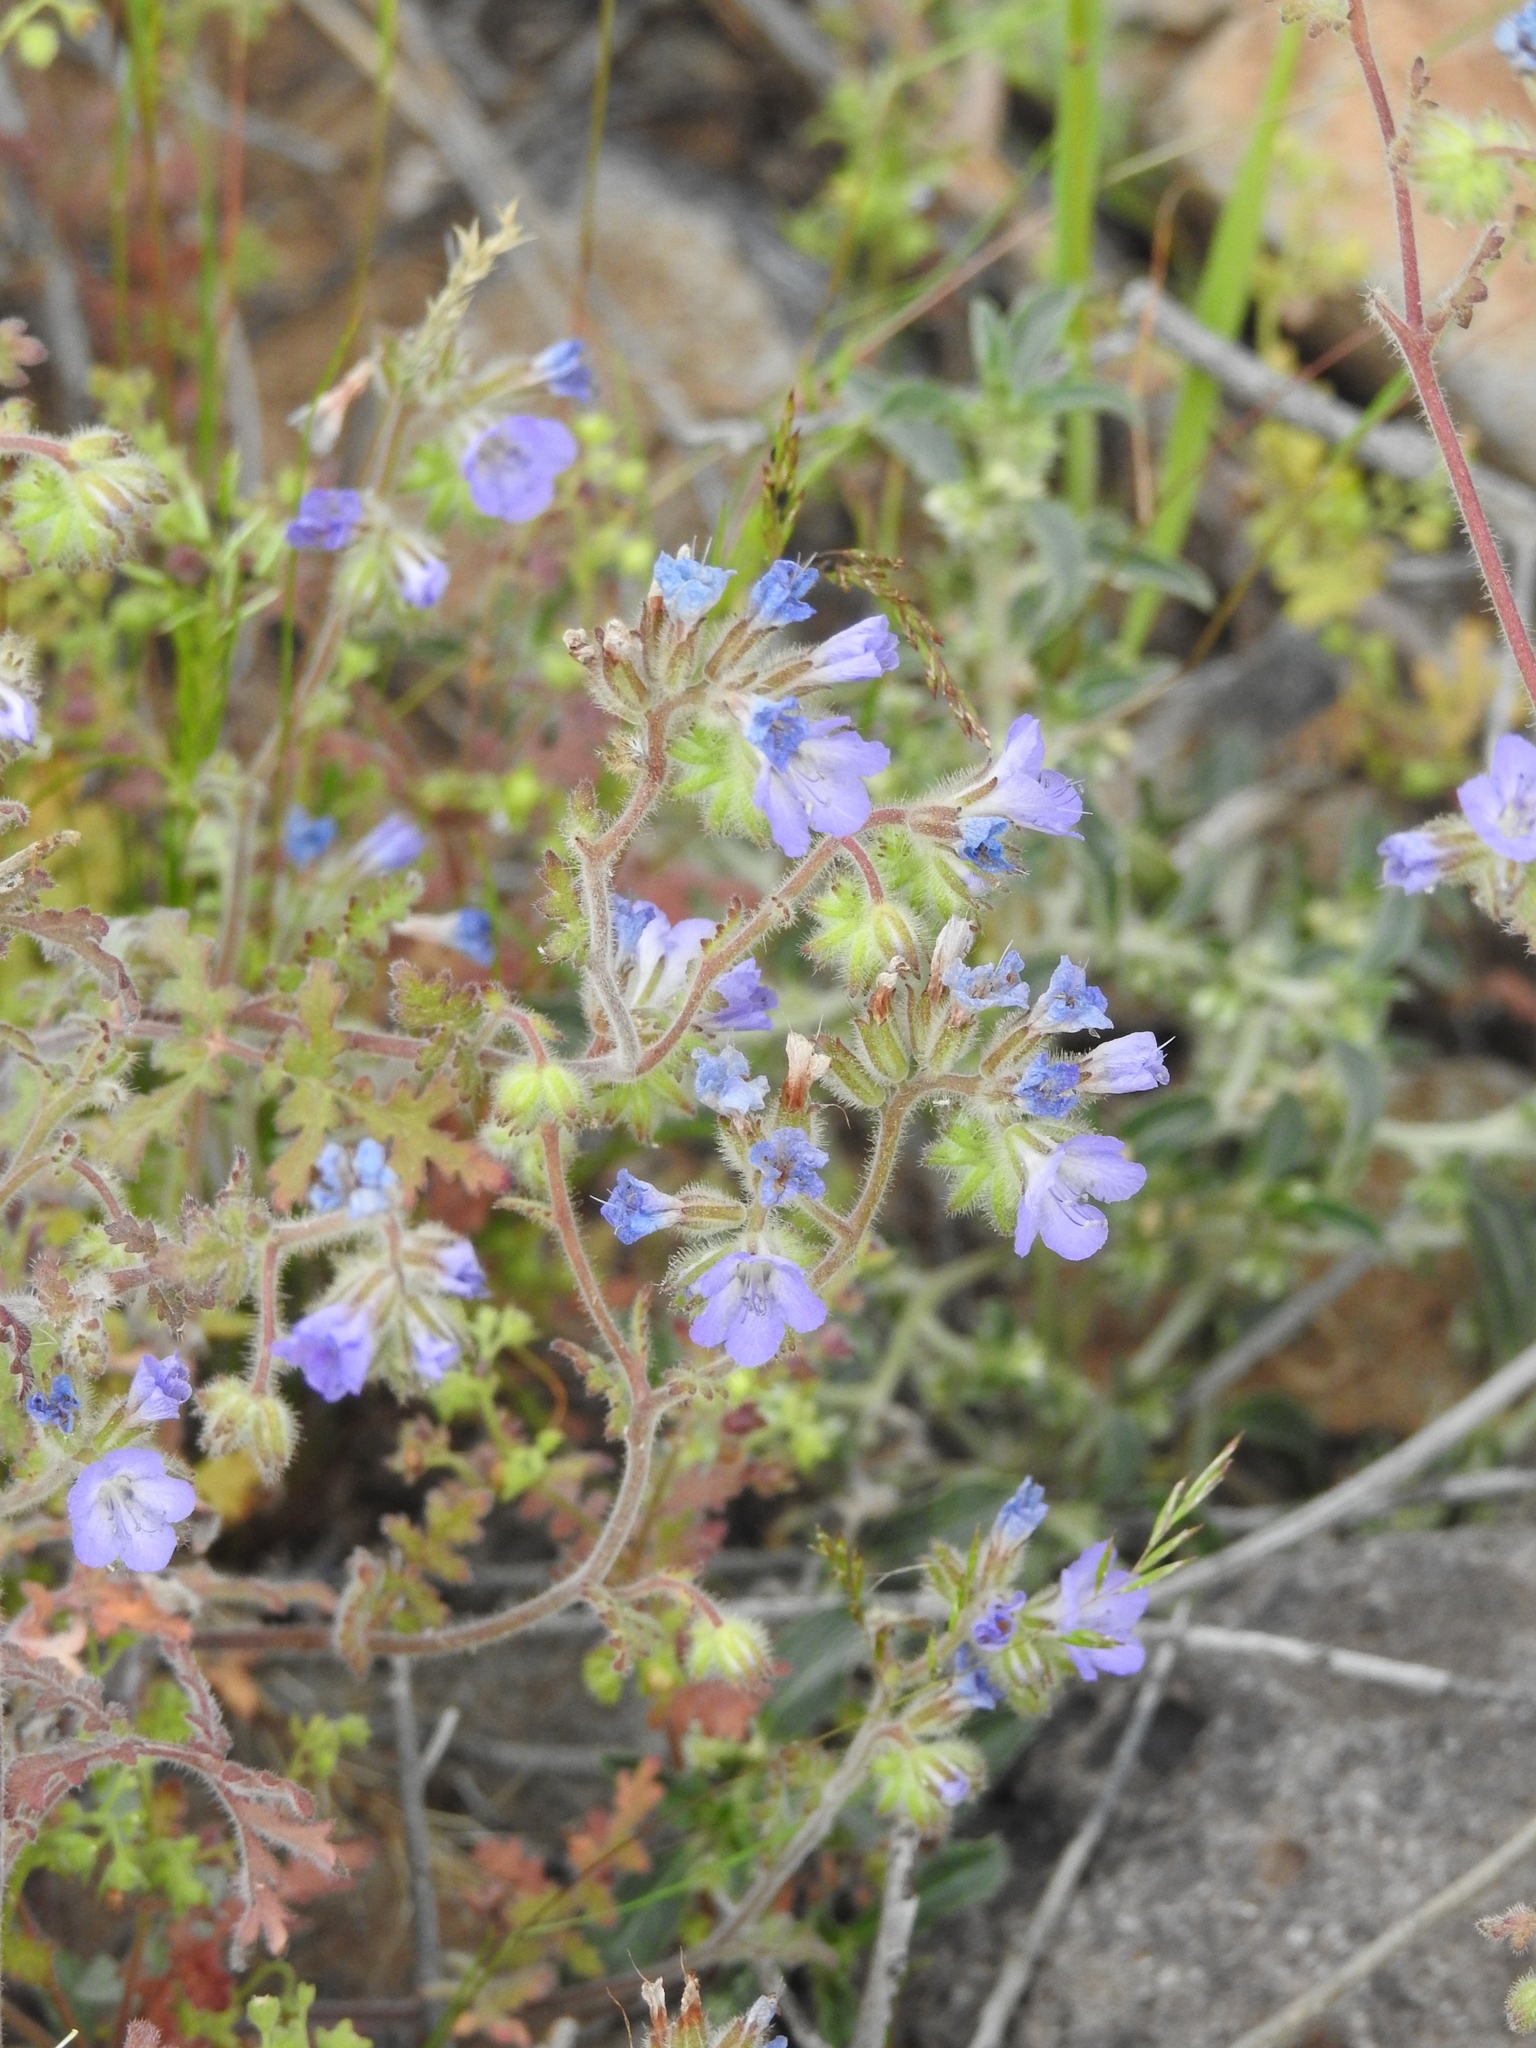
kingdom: Plantae
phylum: Tracheophyta
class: Magnoliopsida
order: Boraginales
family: Hydrophyllaceae
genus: Phacelia
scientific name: Phacelia crenulata
